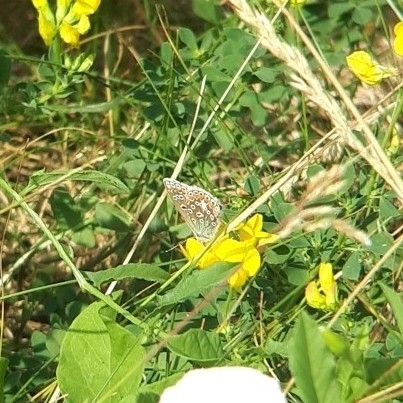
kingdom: Animalia
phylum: Arthropoda
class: Insecta
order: Lepidoptera
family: Lycaenidae
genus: Polyommatus
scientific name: Polyommatus icarus
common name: Common blue
